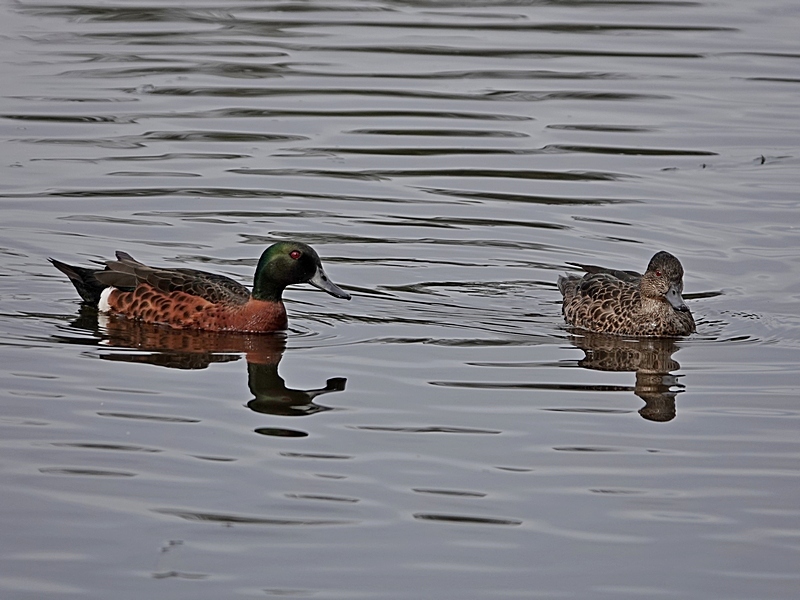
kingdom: Animalia
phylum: Chordata
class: Aves
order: Anseriformes
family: Anatidae
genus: Anas
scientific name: Anas castanea
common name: Chestnut teal
